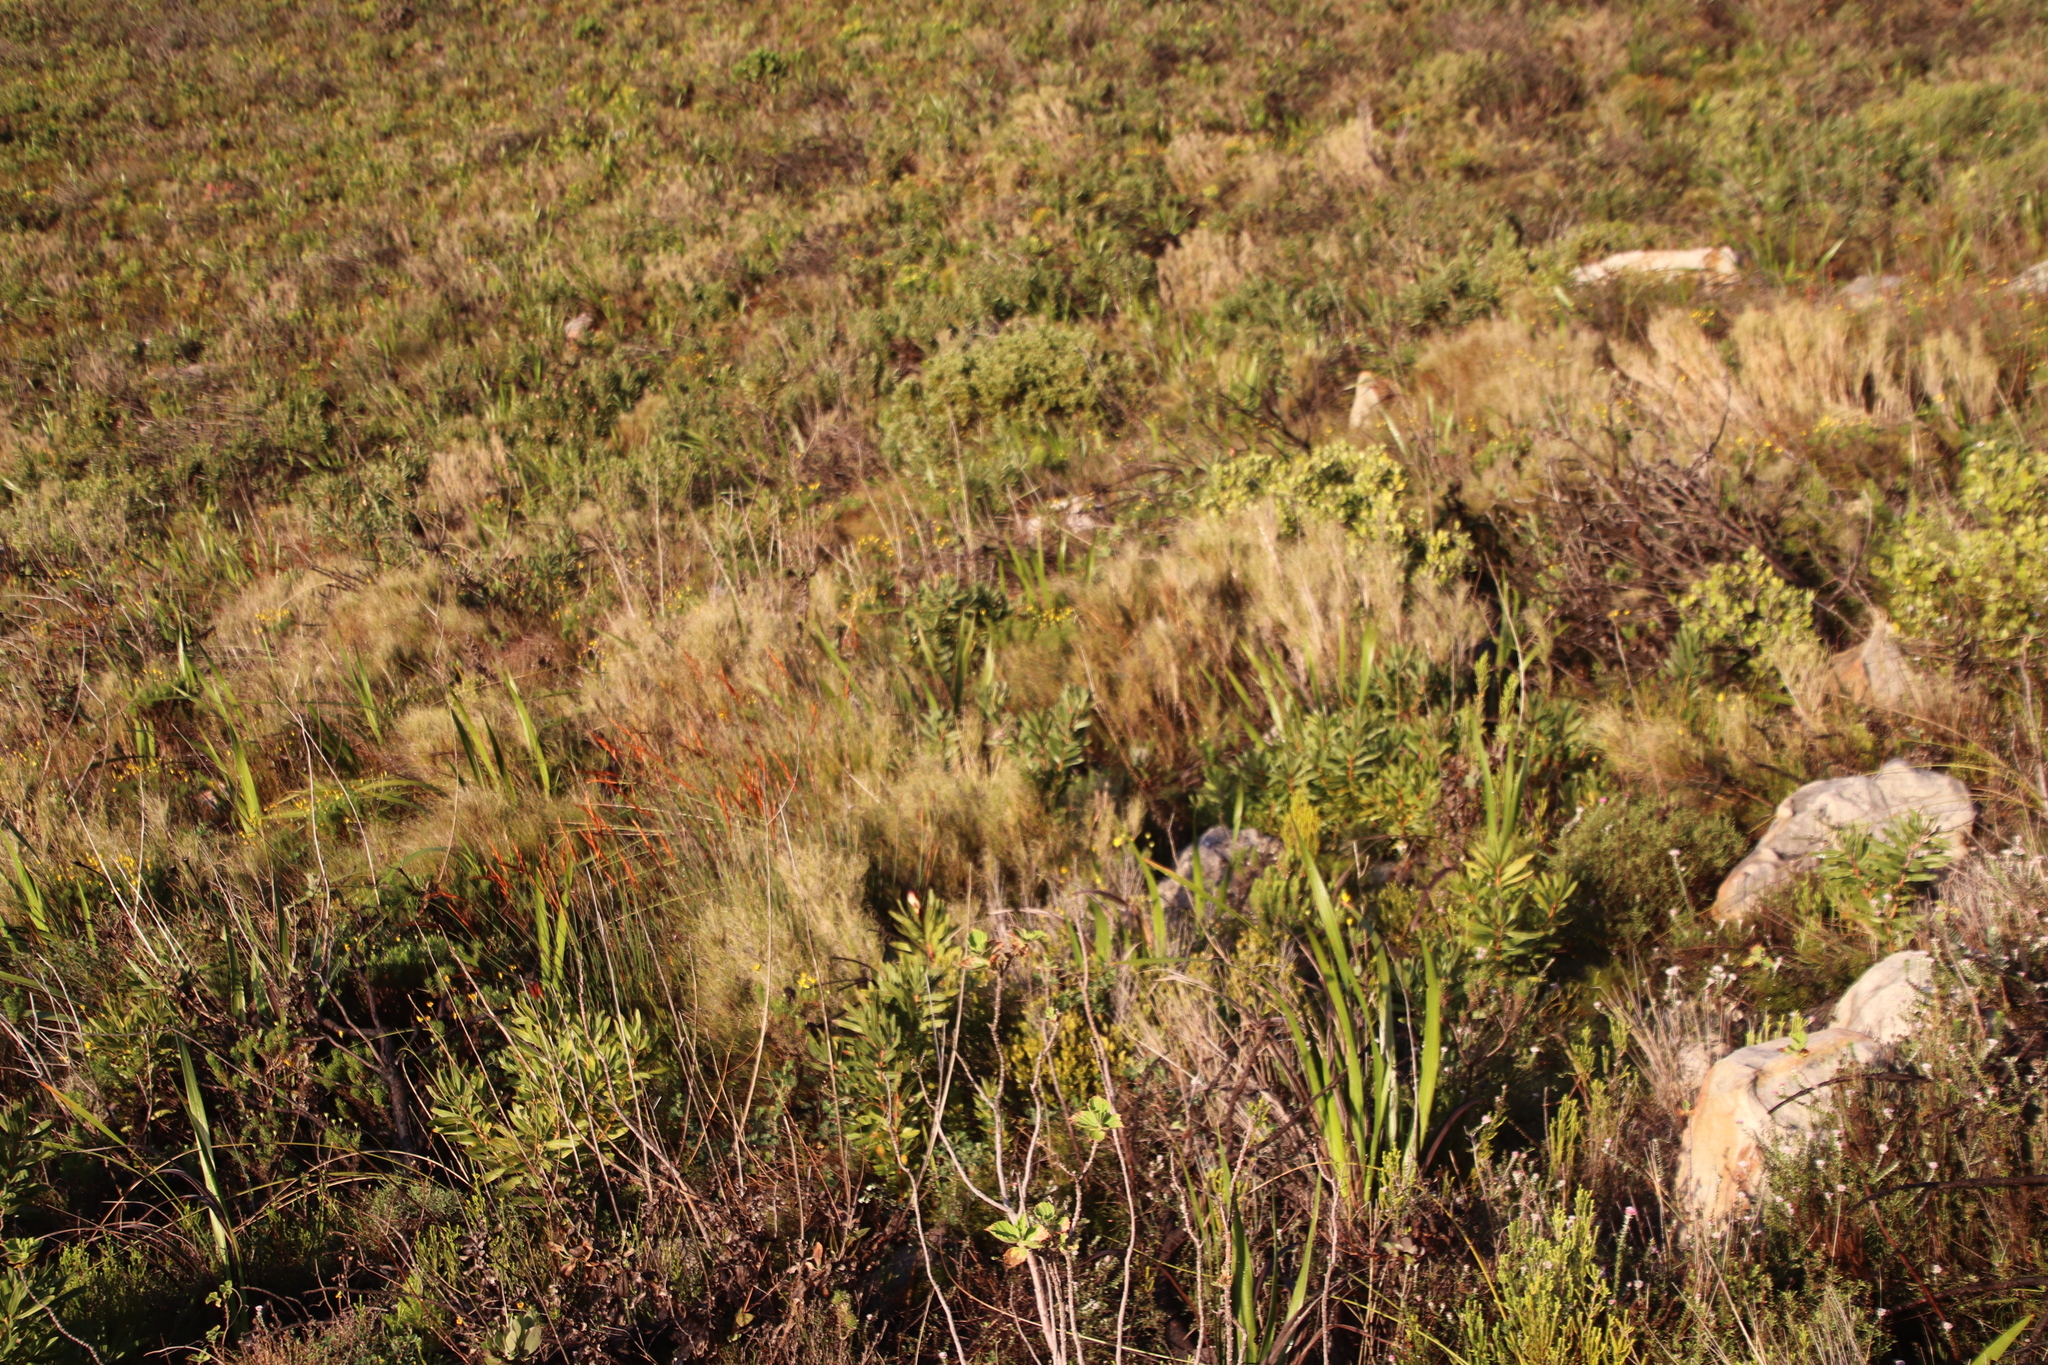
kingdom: Plantae
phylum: Tracheophyta
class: Liliopsida
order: Poales
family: Poaceae
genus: Pseudopentameris
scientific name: Pseudopentameris macrantha
